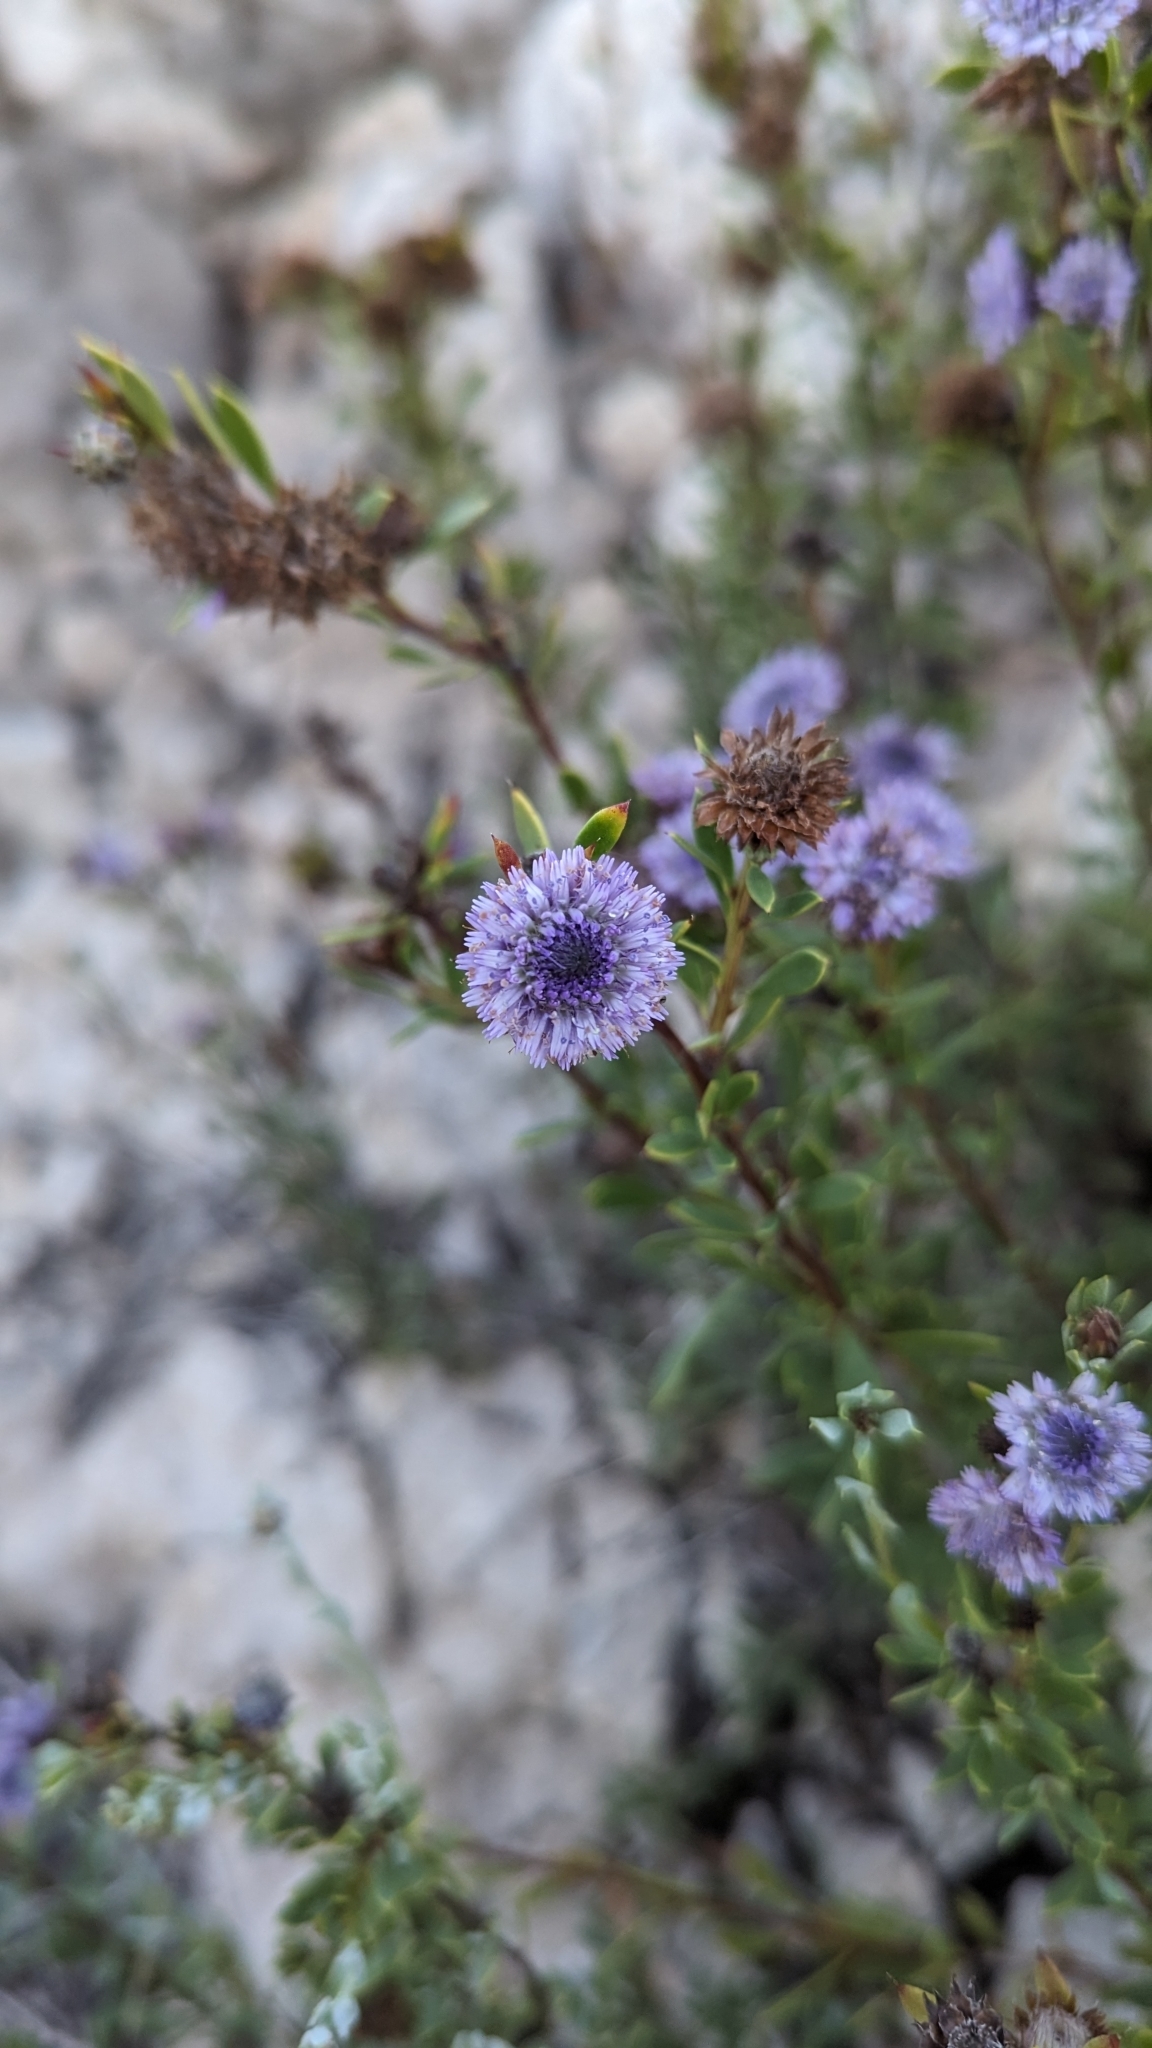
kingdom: Plantae
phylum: Tracheophyta
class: Magnoliopsida
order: Lamiales
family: Plantaginaceae
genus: Globularia
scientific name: Globularia alypum
